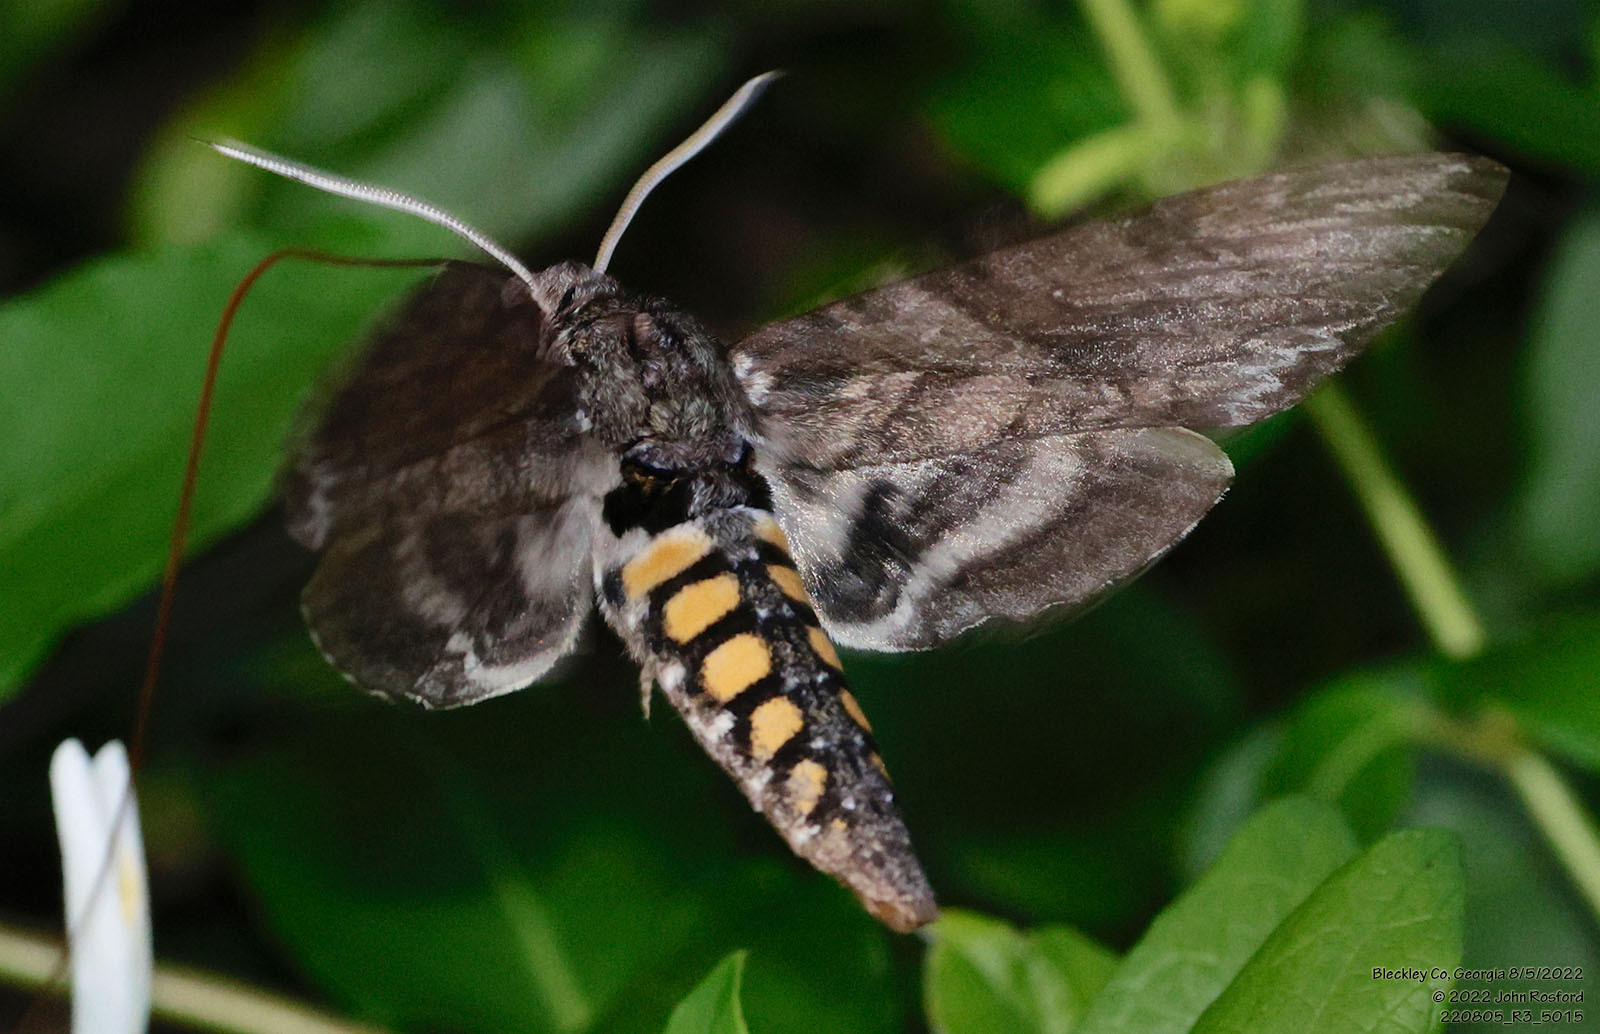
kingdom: Animalia
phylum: Arthropoda
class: Insecta
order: Lepidoptera
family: Sphingidae
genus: Manduca
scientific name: Manduca sexta
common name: Carolina sphinx
